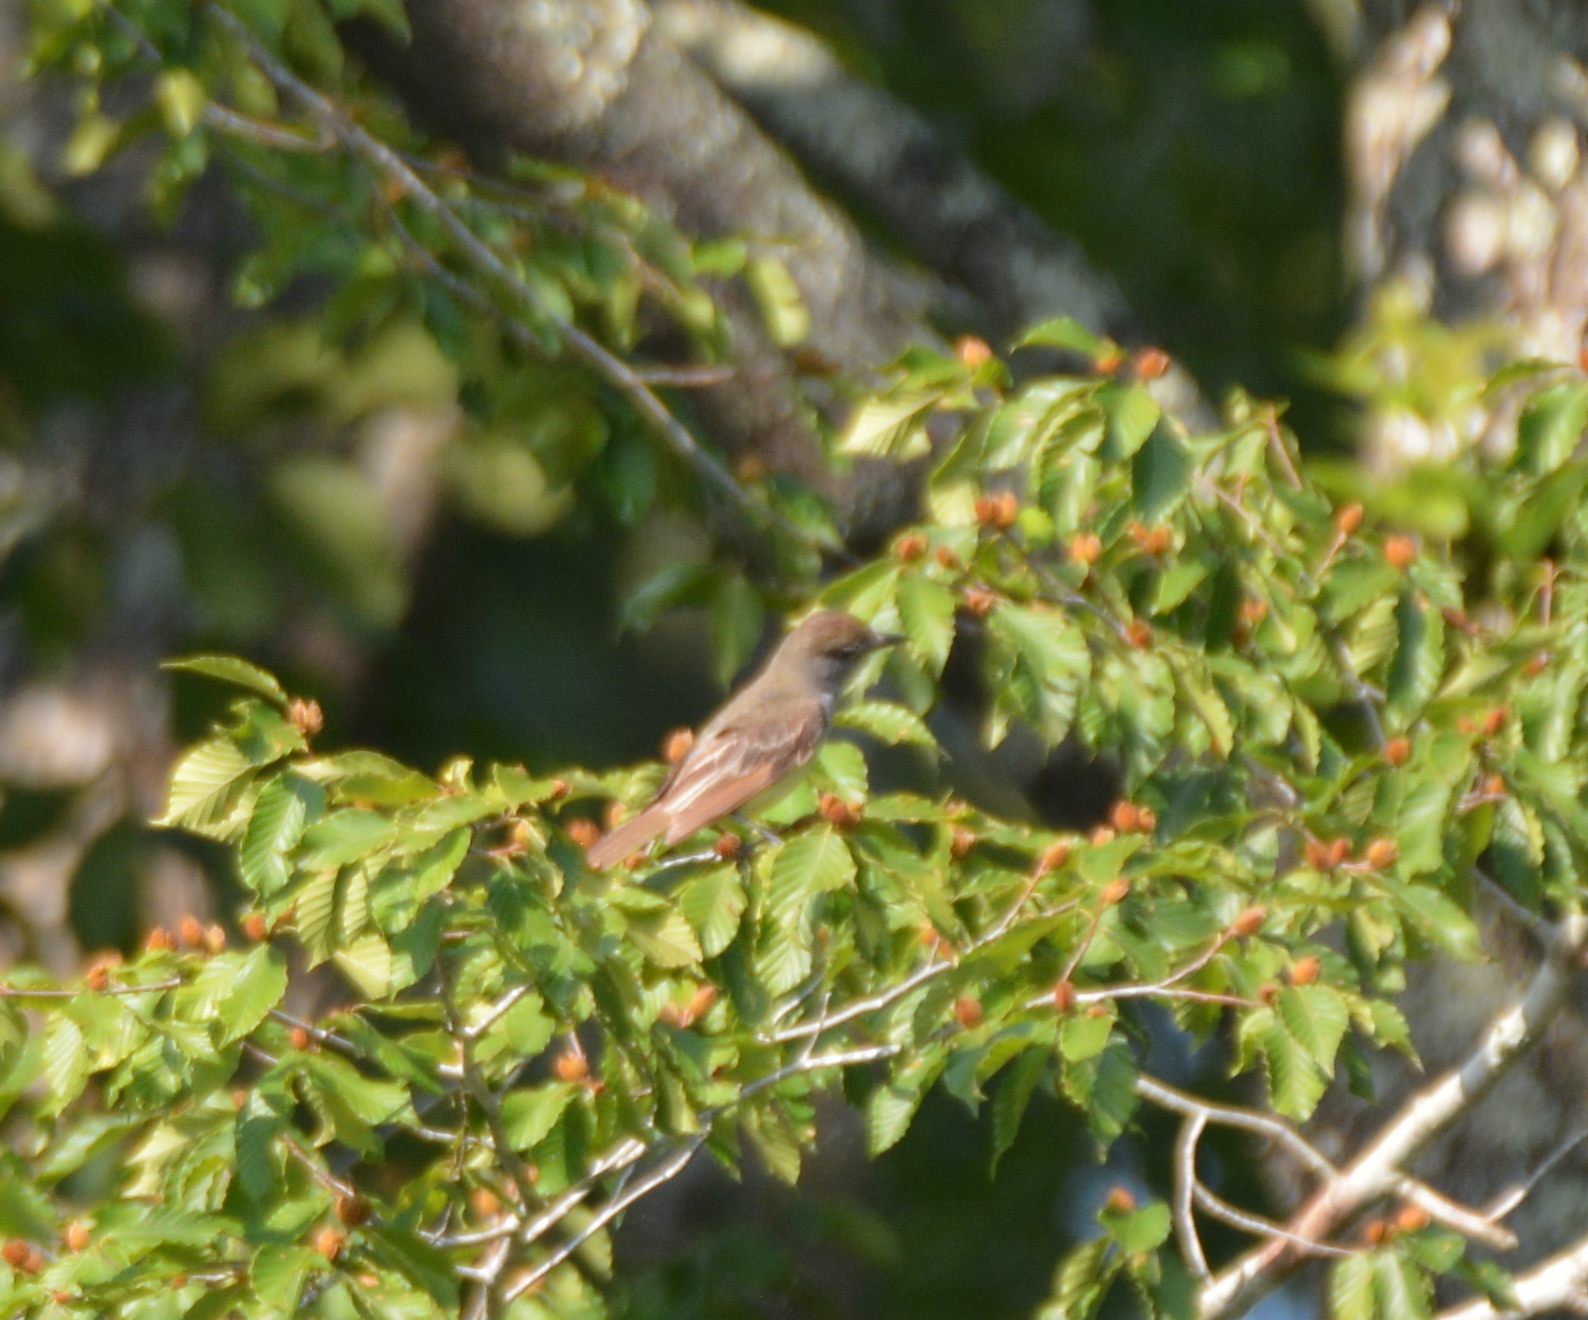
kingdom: Animalia
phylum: Chordata
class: Aves
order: Passeriformes
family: Tyrannidae
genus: Myiarchus
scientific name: Myiarchus crinitus
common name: Great crested flycatcher
